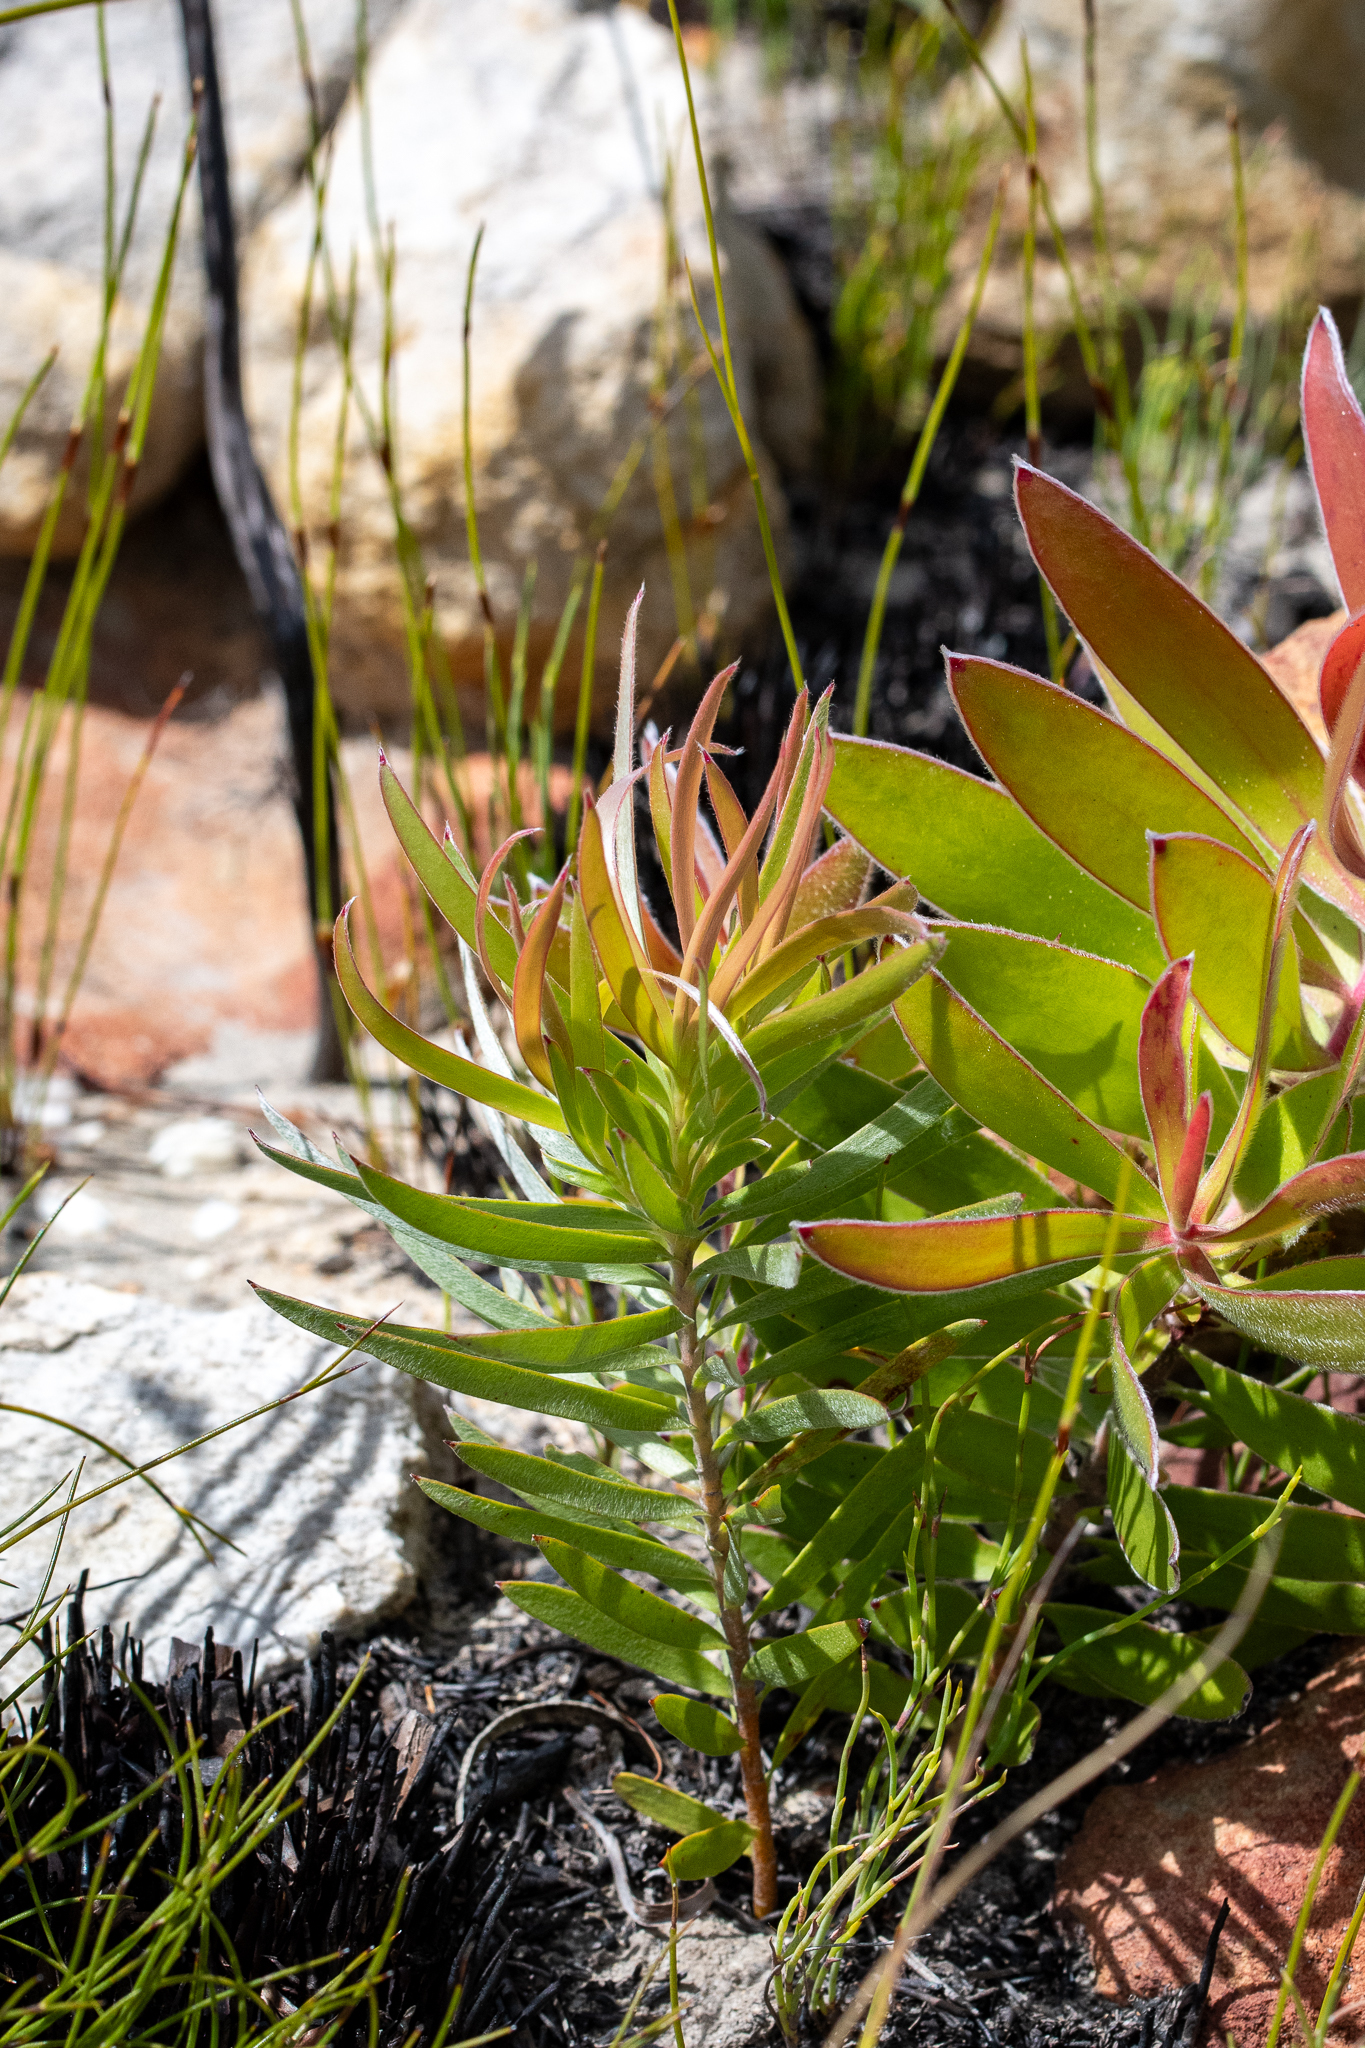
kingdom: Plantae
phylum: Tracheophyta
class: Magnoliopsida
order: Proteales
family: Proteaceae
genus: Leucadendron
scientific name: Leucadendron xanthoconus
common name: Sickle-leaf conebush
